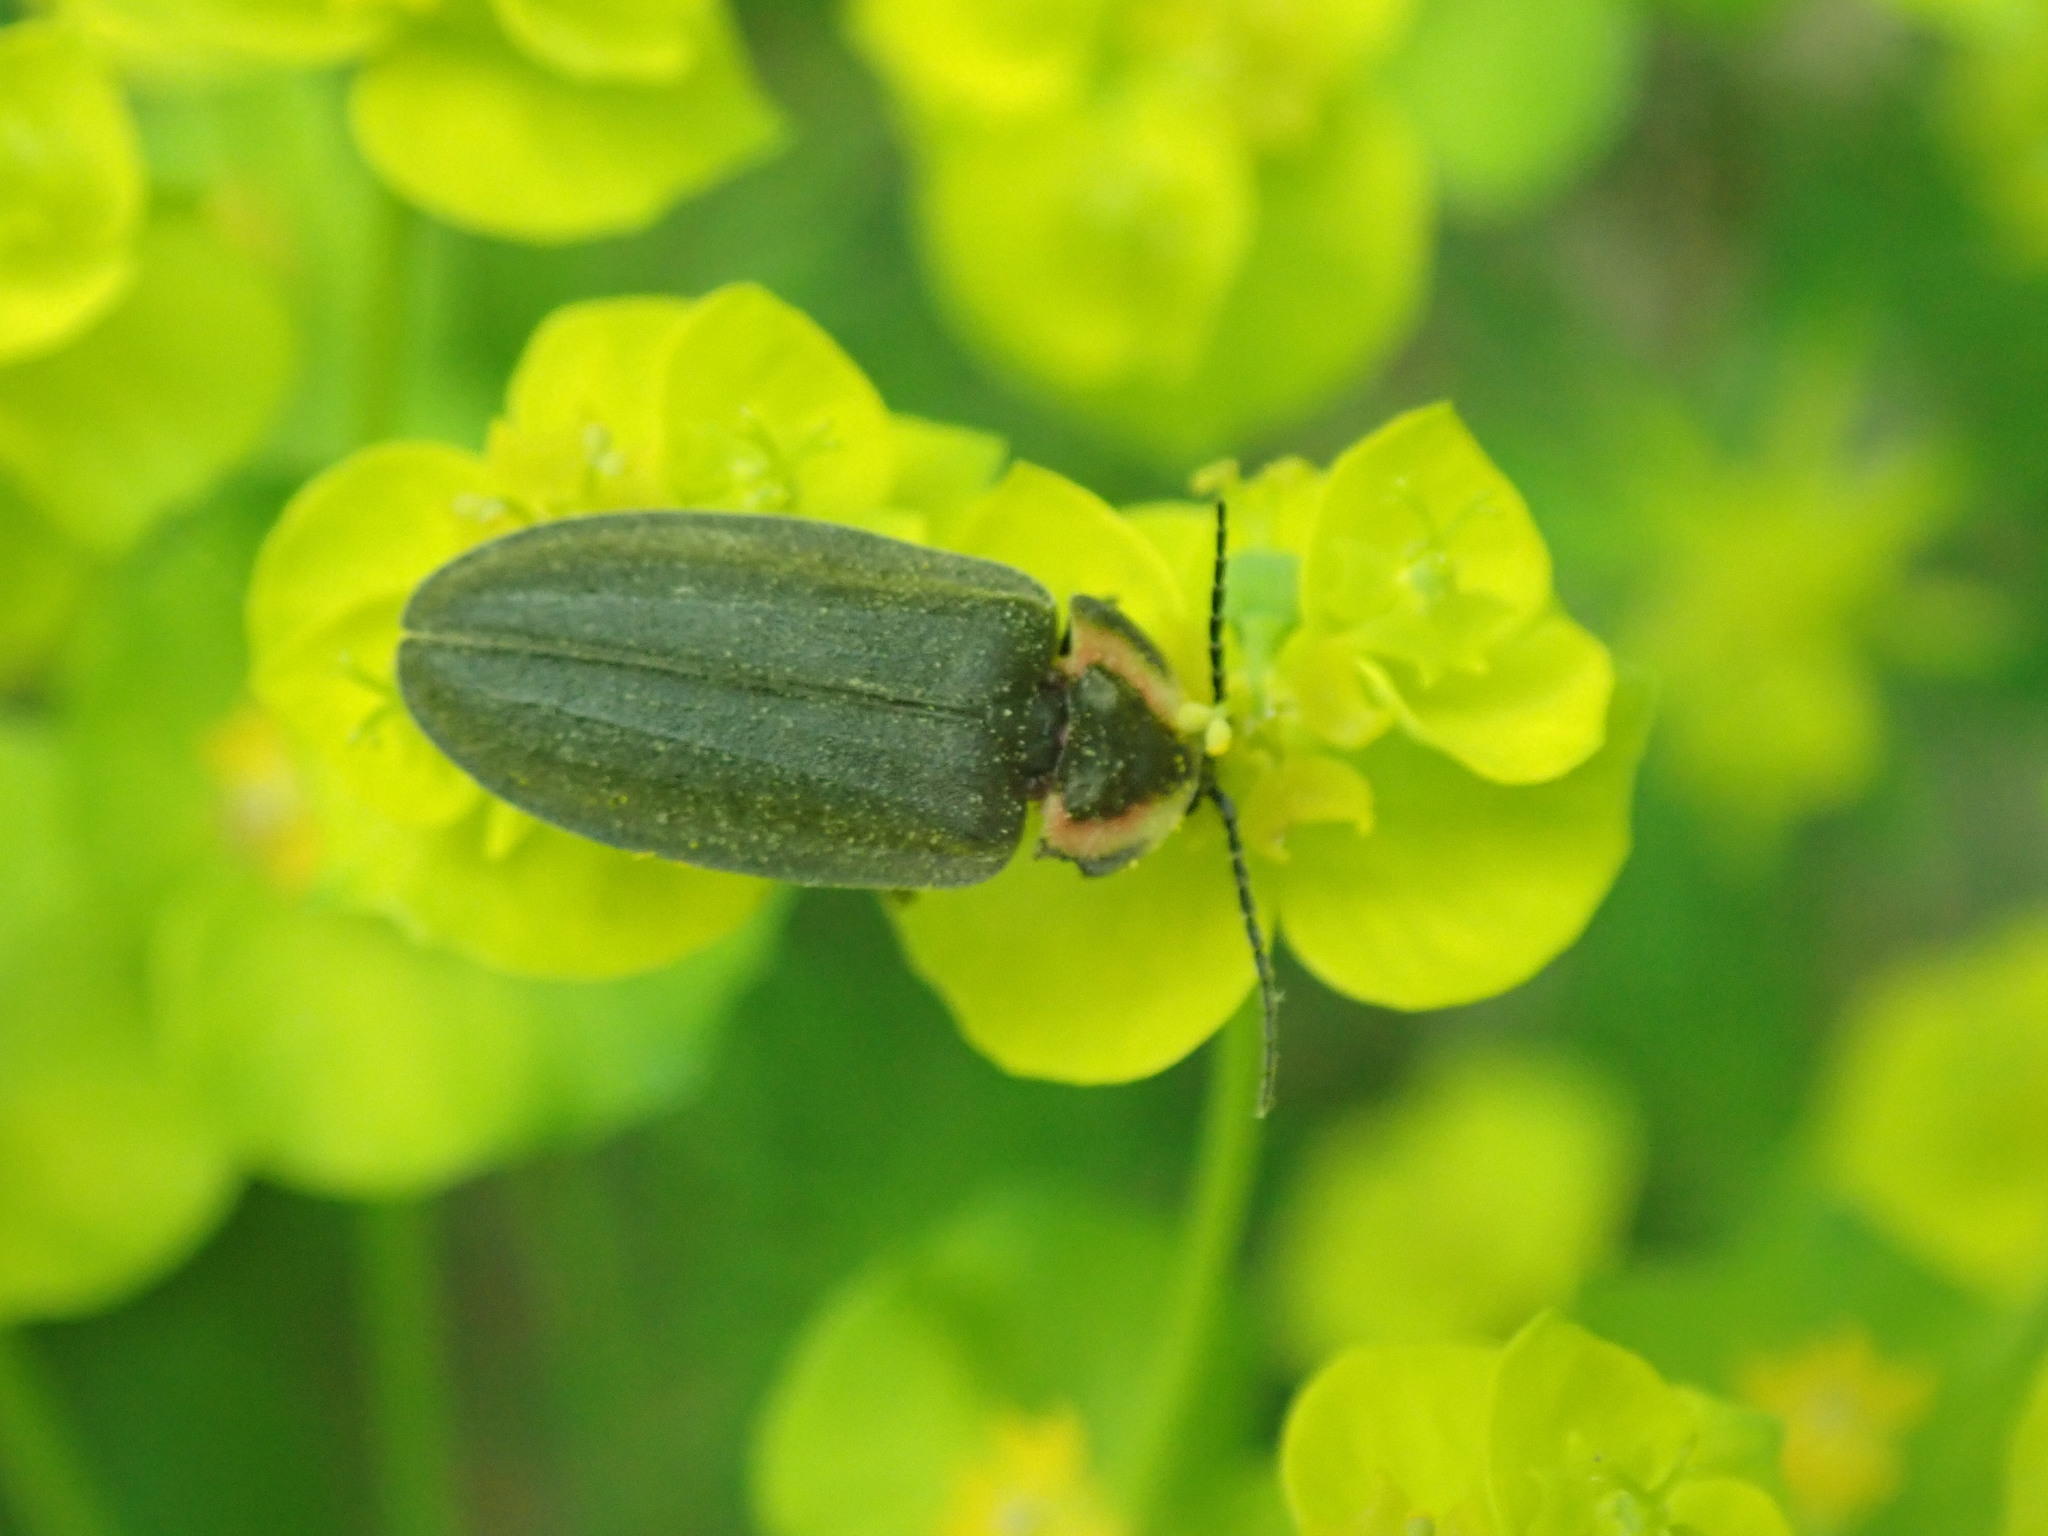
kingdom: Animalia
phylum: Arthropoda
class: Insecta
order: Coleoptera
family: Lampyridae
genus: Photinus
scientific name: Photinus corrusca
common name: Winter firefly
